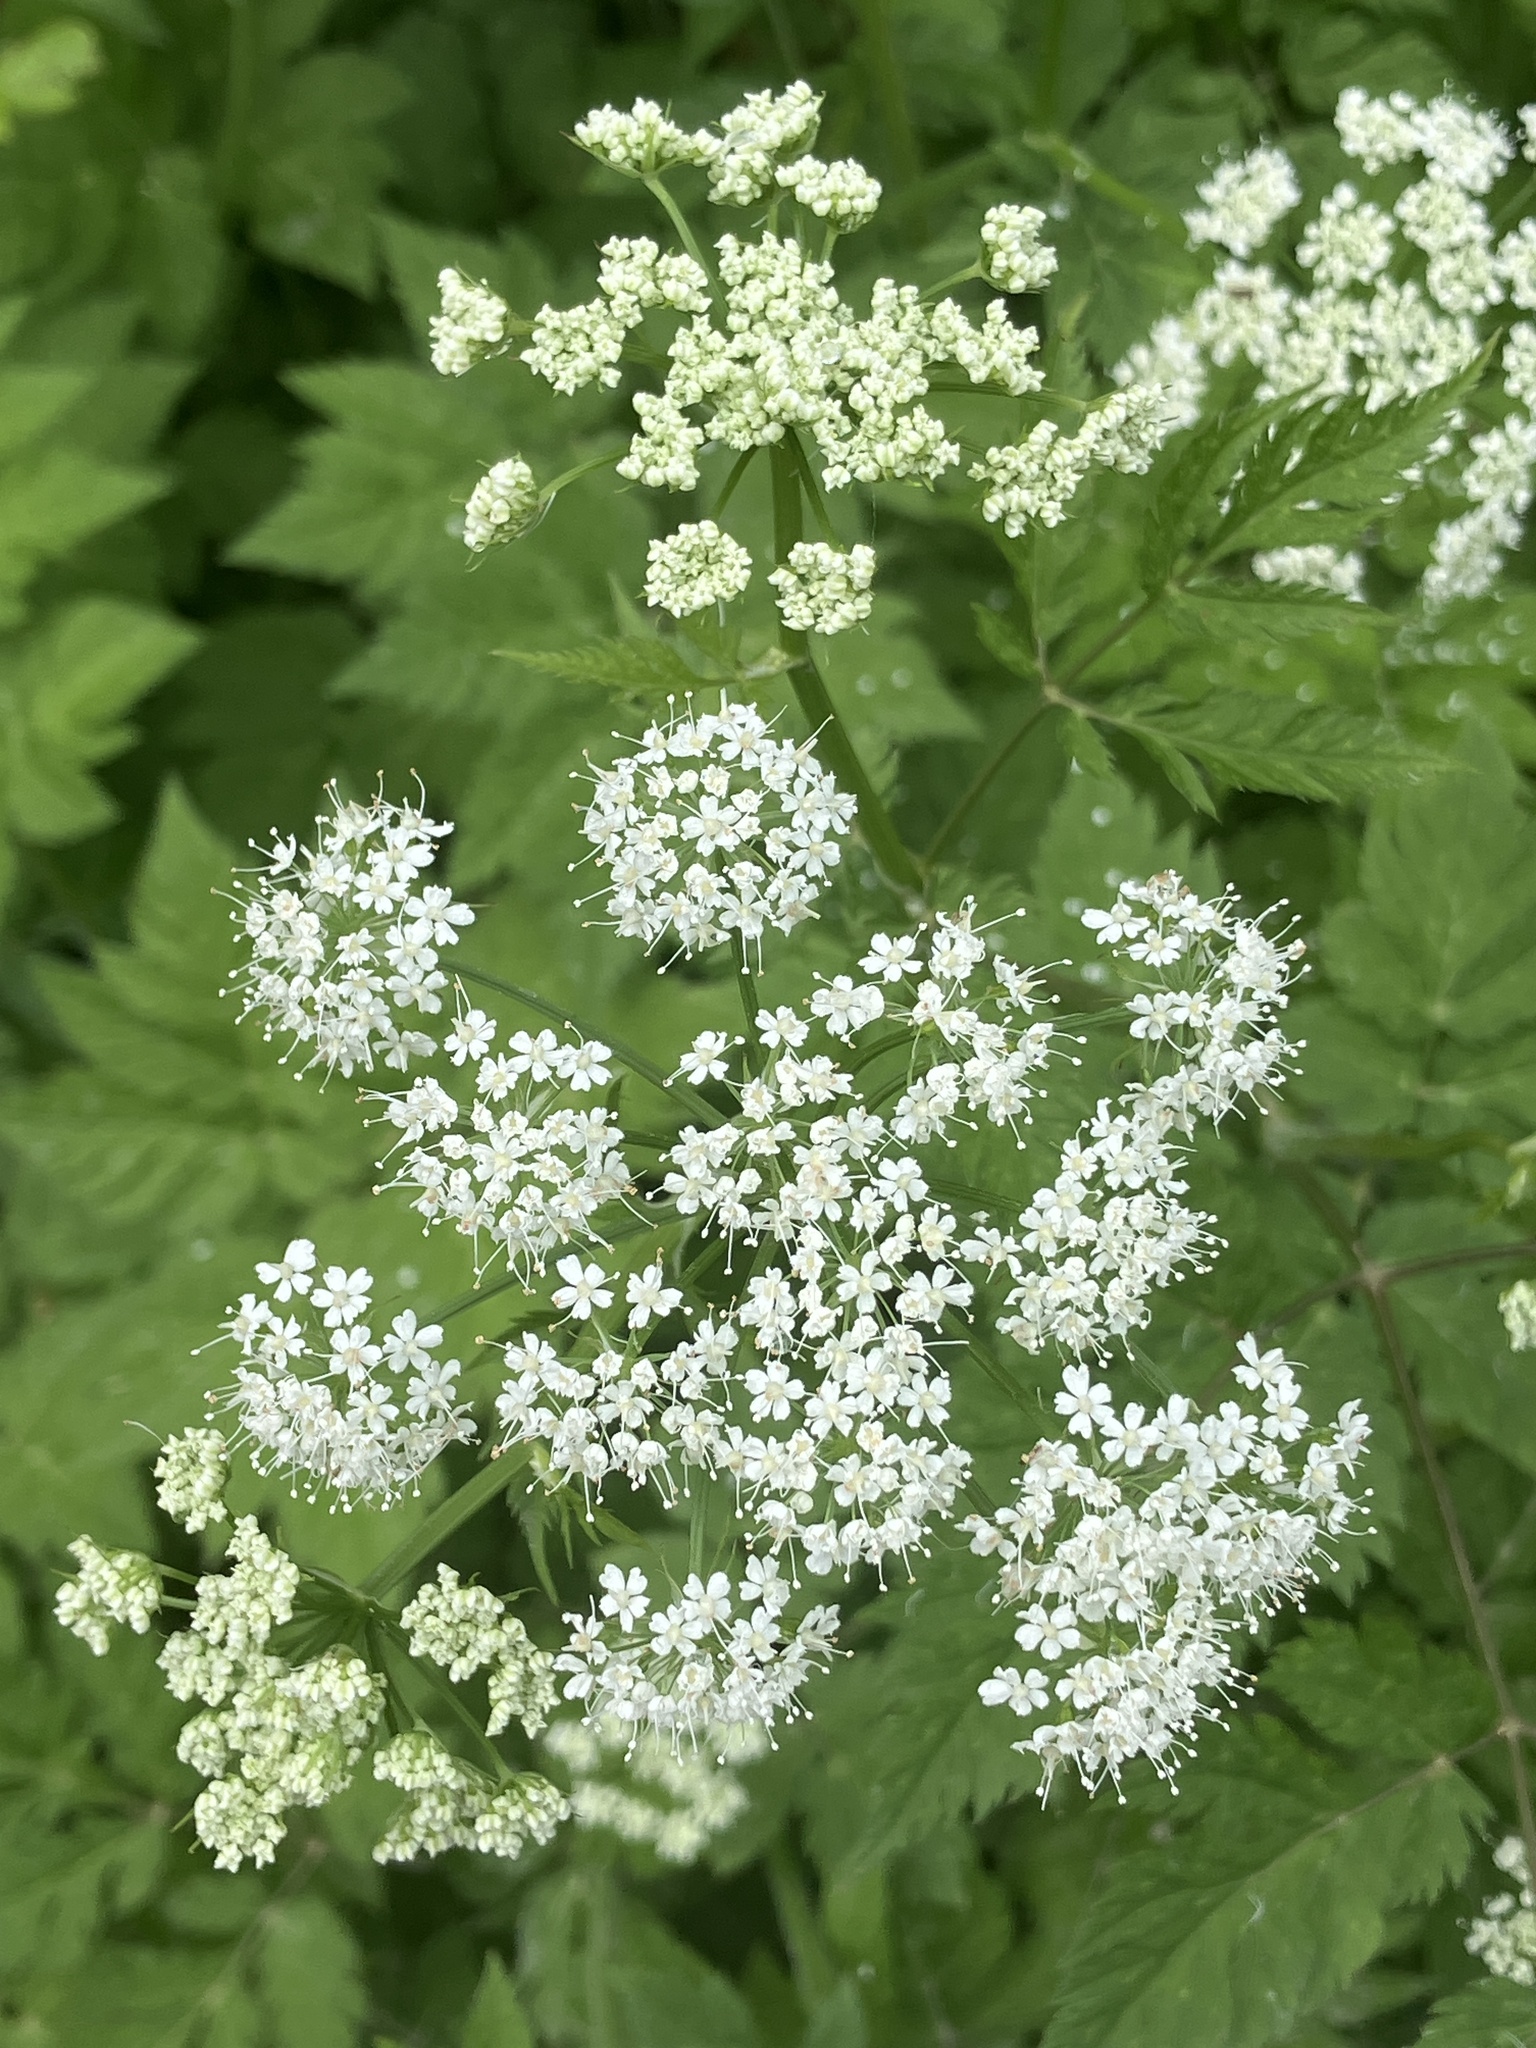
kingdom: Plantae
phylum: Tracheophyta
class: Magnoliopsida
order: Apiales
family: Apiaceae
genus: Chaerophyllum
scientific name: Chaerophyllum hirsutum
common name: Hairy chervil
